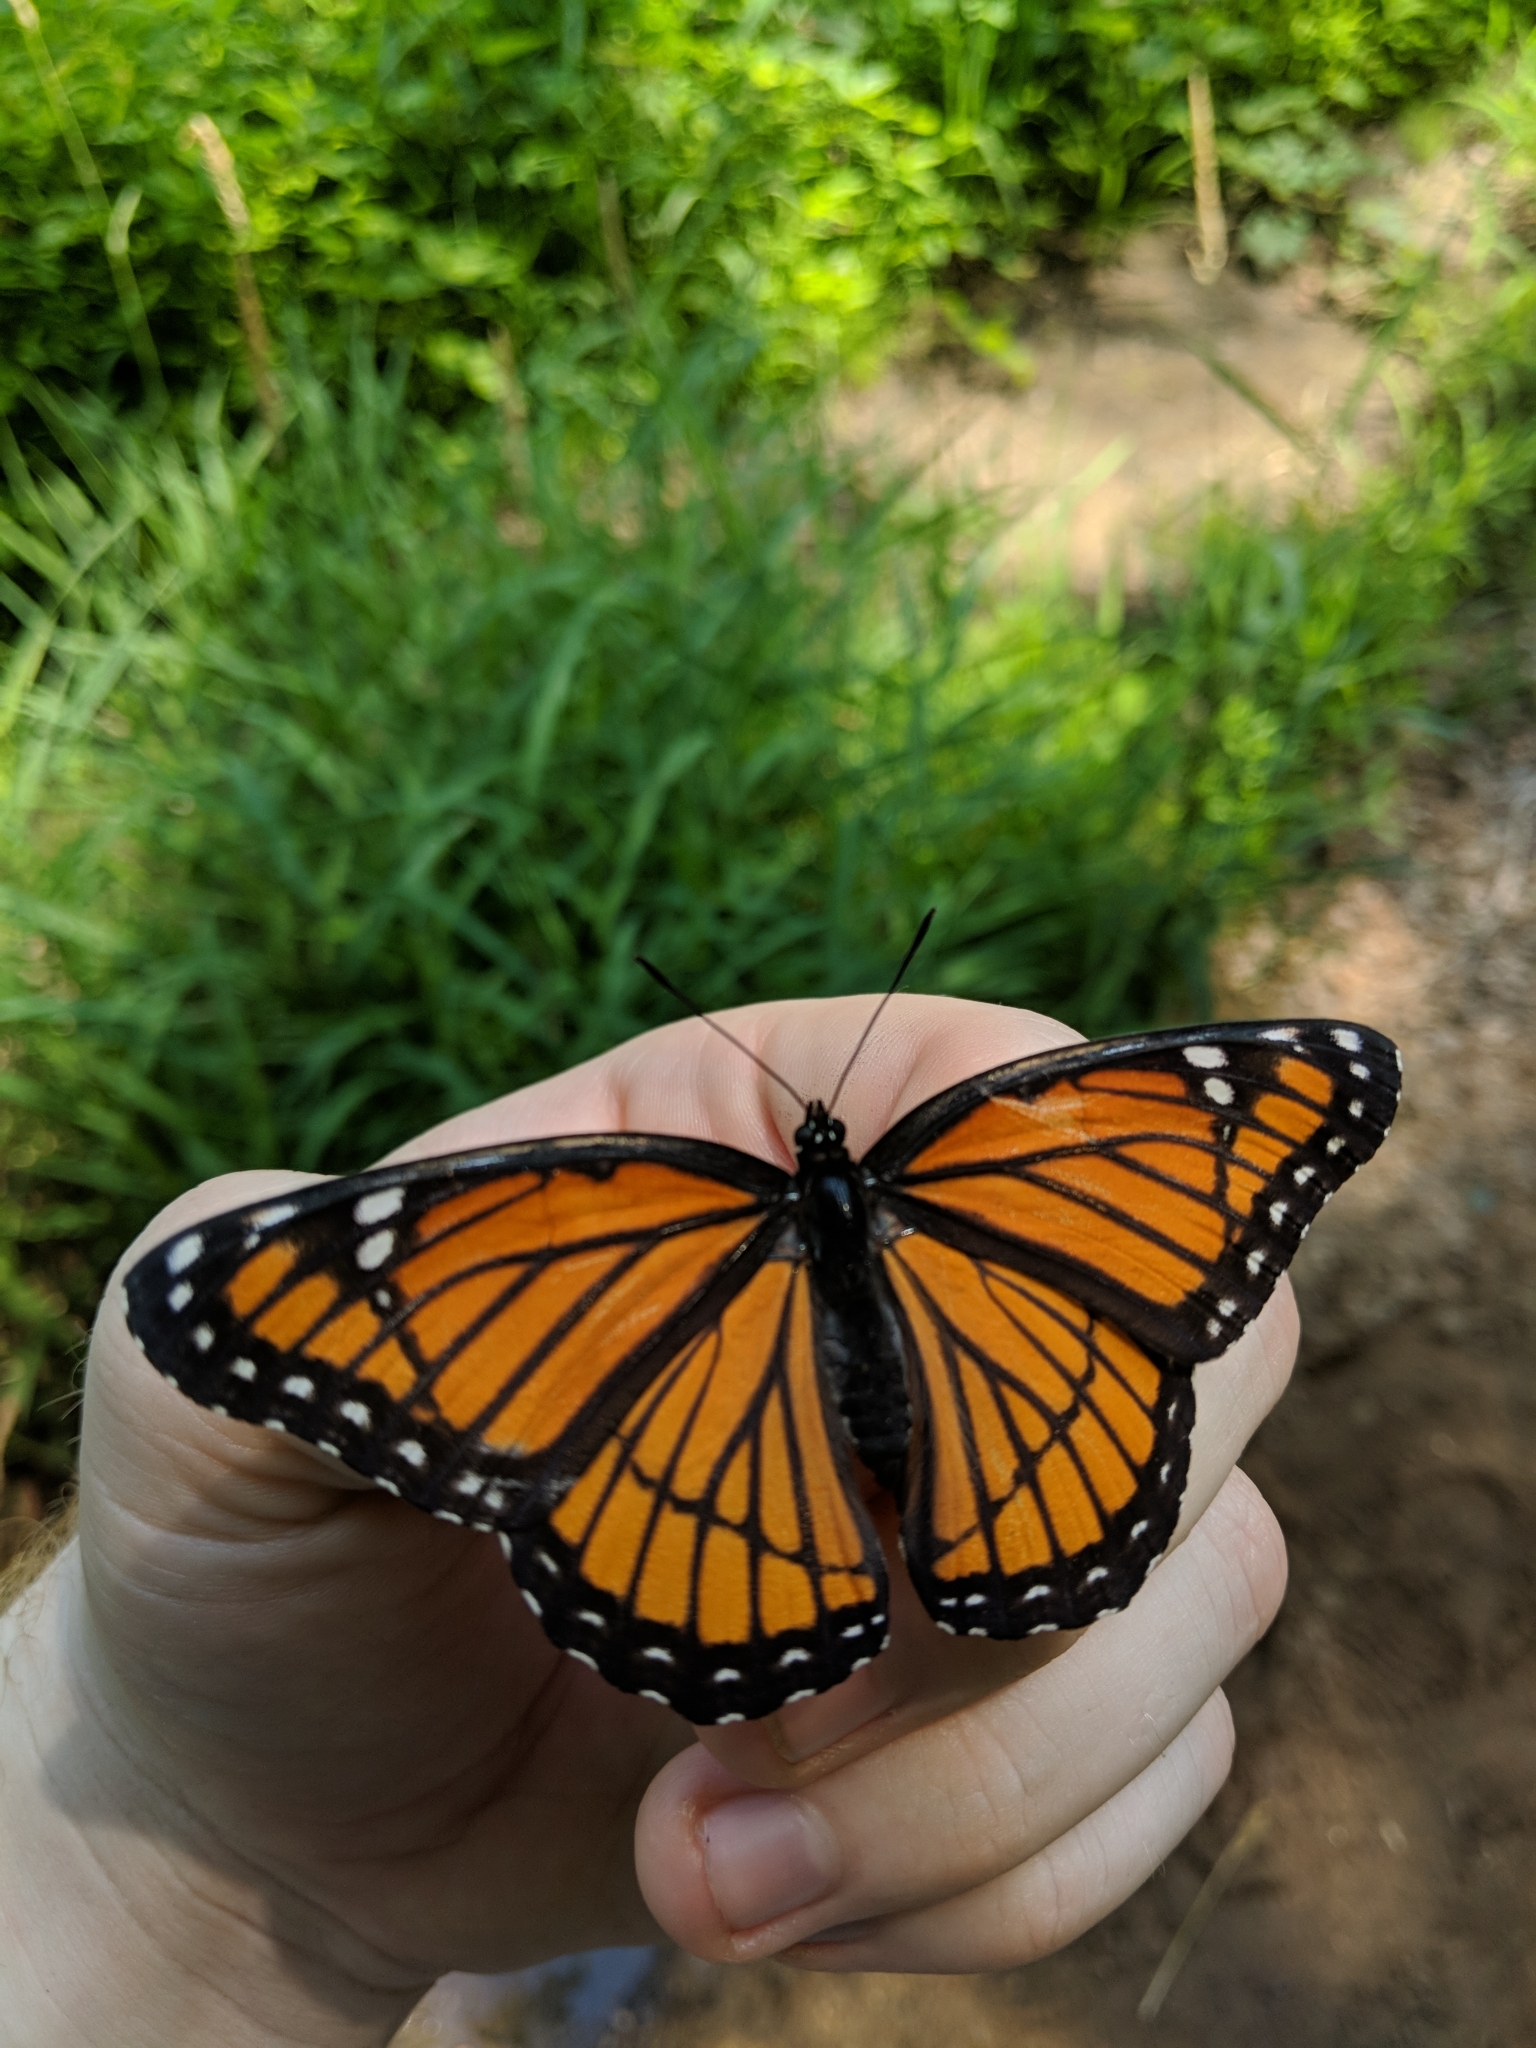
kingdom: Animalia
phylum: Arthropoda
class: Insecta
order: Lepidoptera
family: Nymphalidae
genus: Limenitis
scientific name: Limenitis archippus
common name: Viceroy
